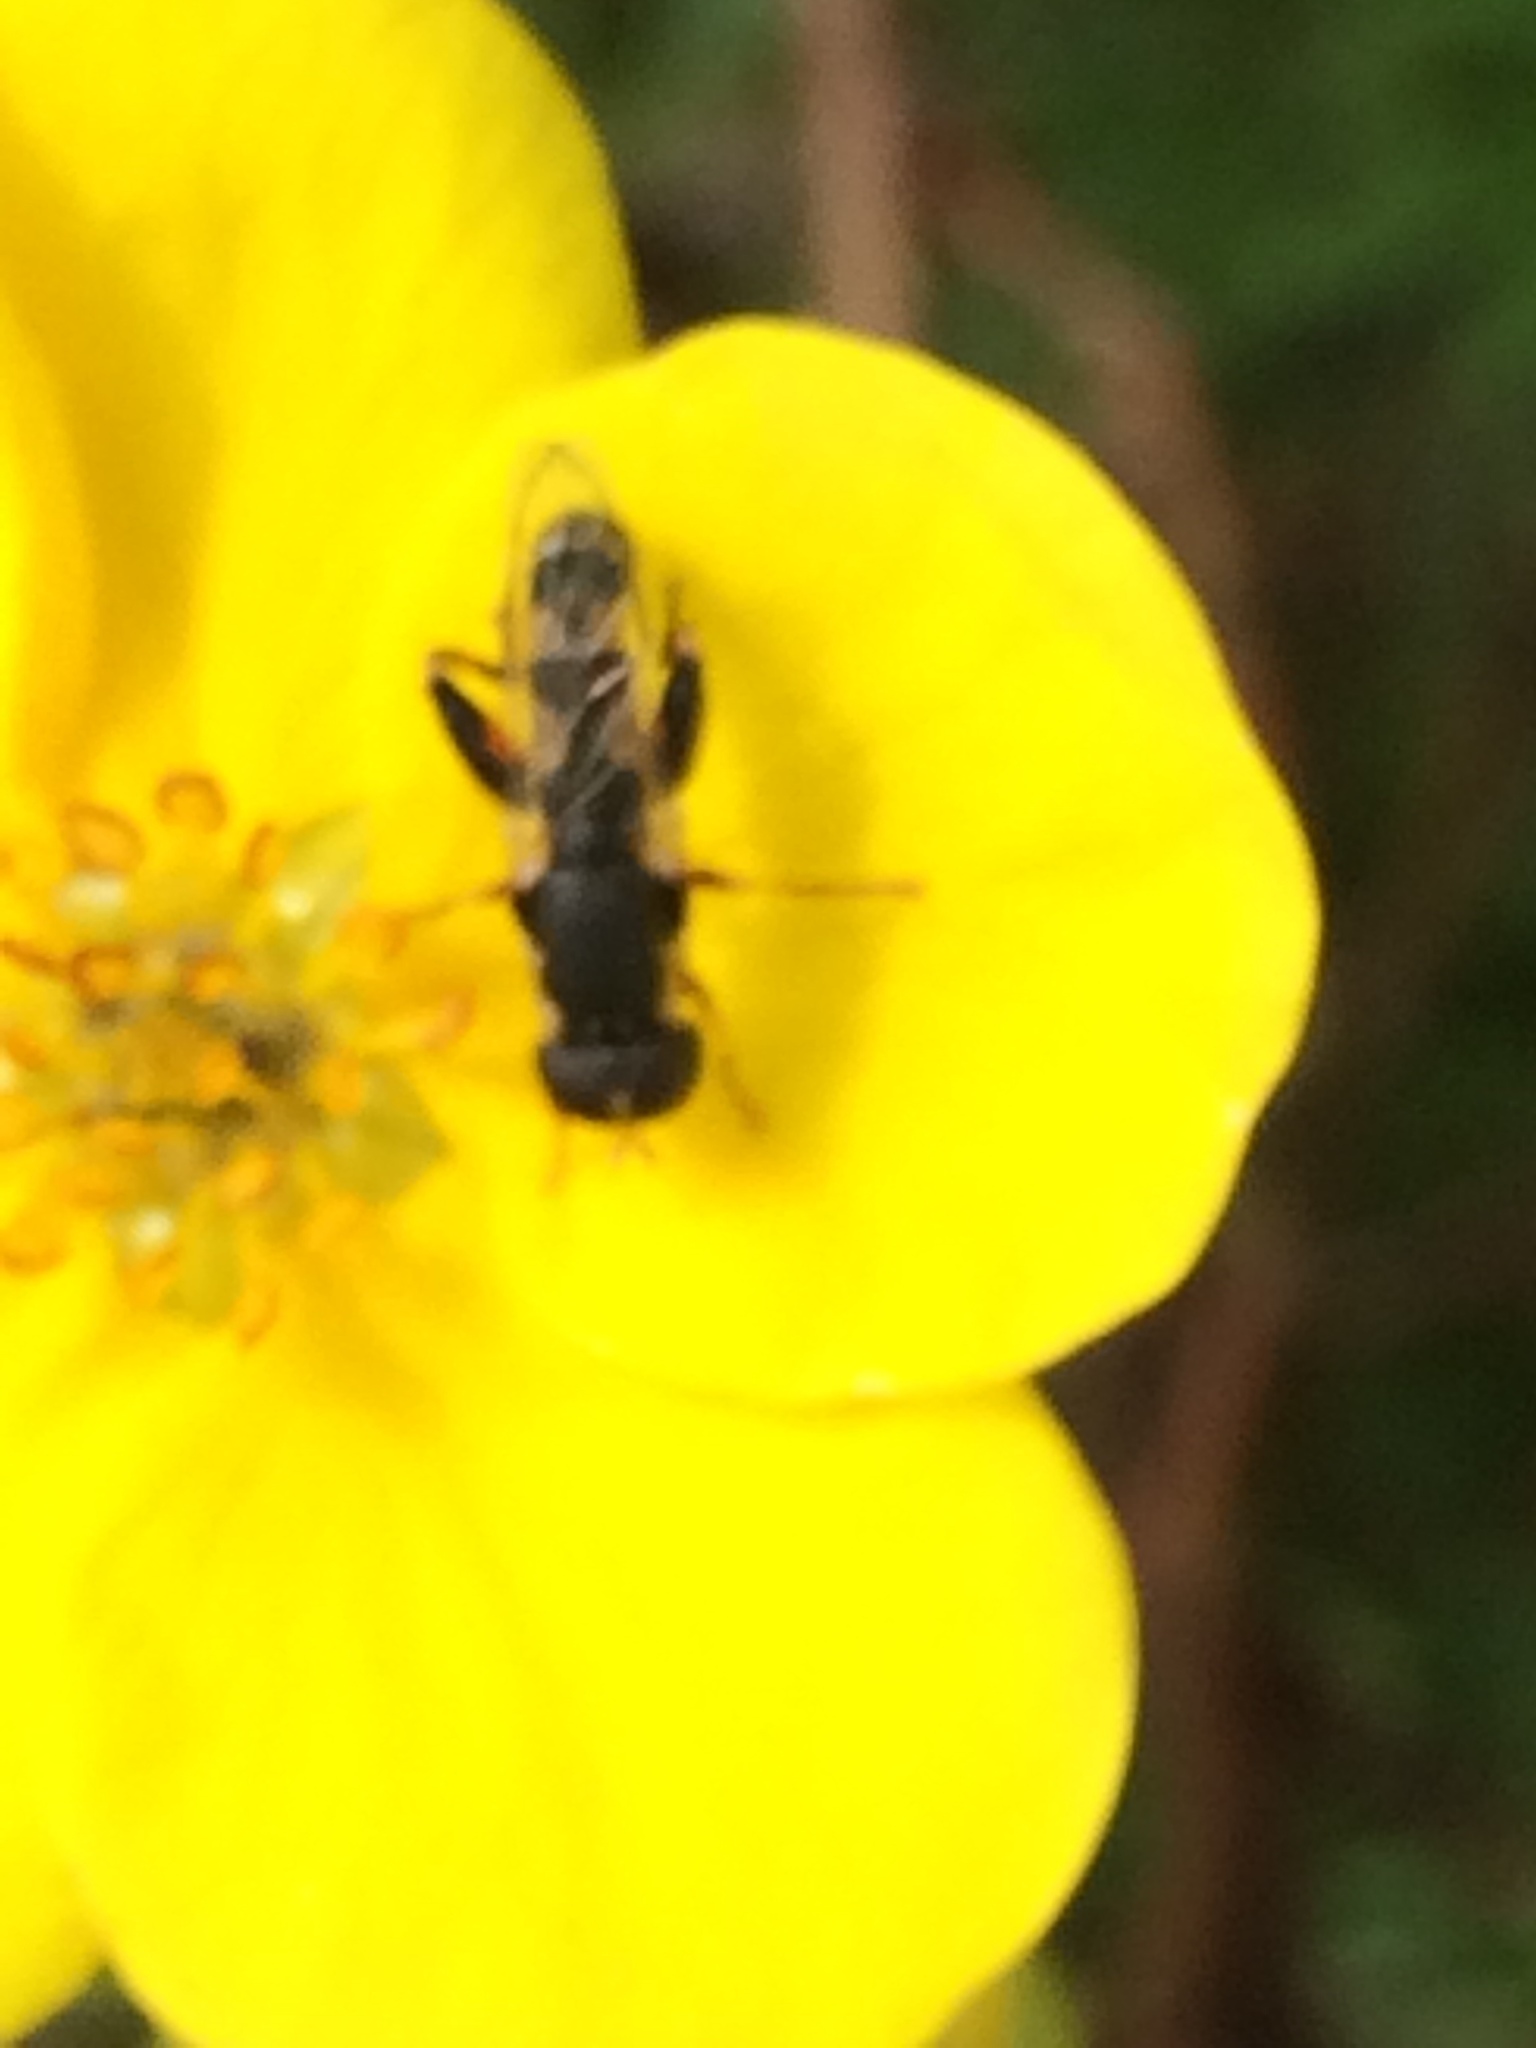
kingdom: Animalia
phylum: Arthropoda
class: Insecta
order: Diptera
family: Syrphidae
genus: Syritta
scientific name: Syritta pipiens
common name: Hover fly
